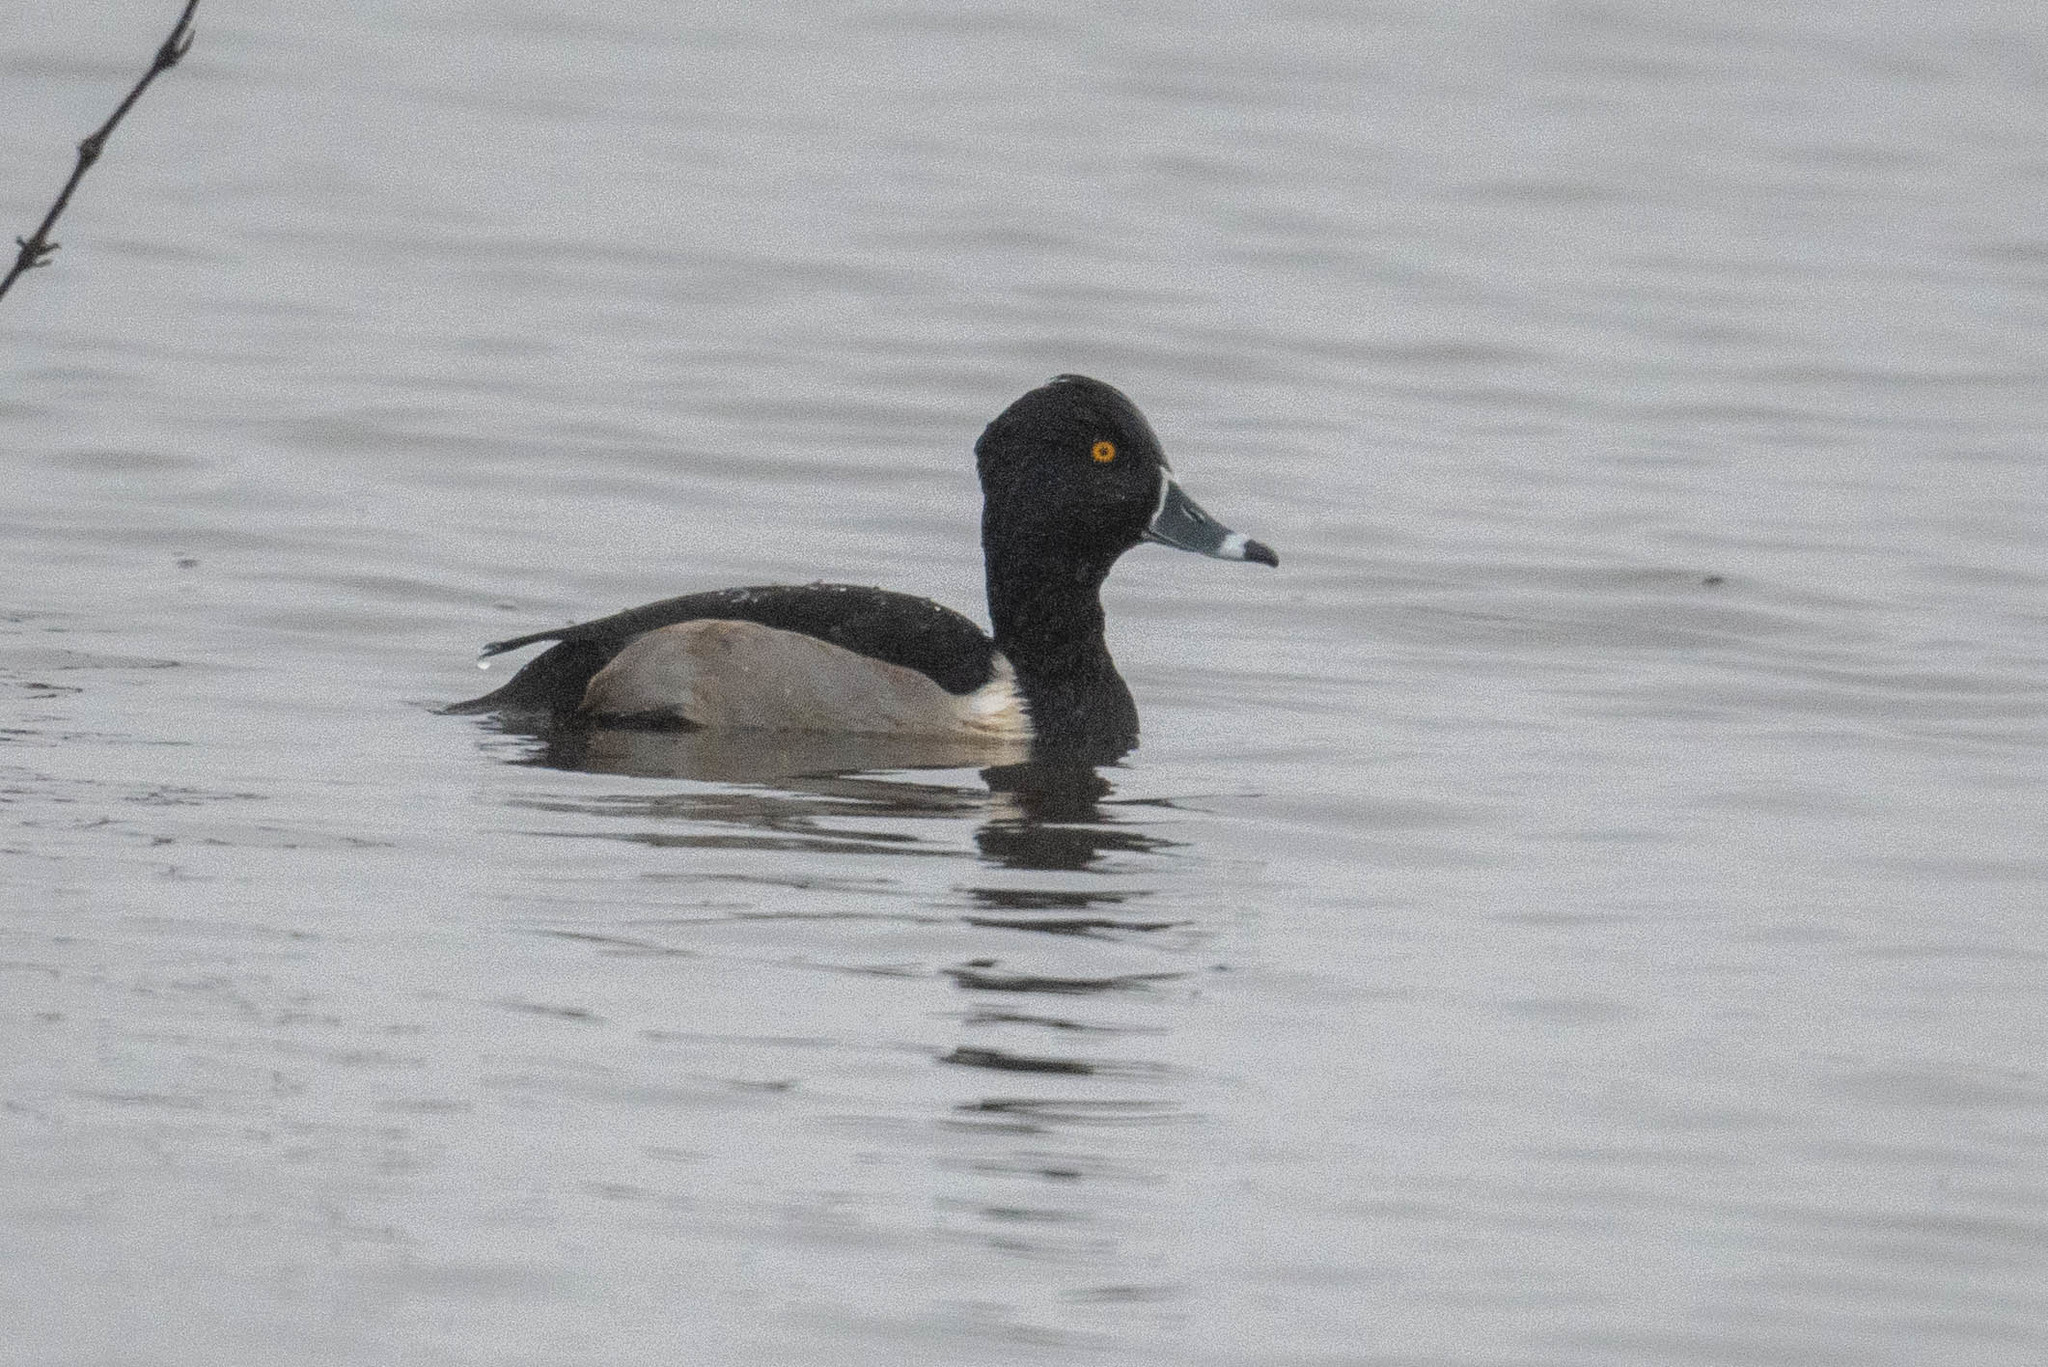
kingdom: Animalia
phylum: Chordata
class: Aves
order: Anseriformes
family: Anatidae
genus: Aythya
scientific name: Aythya collaris
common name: Ring-necked duck
